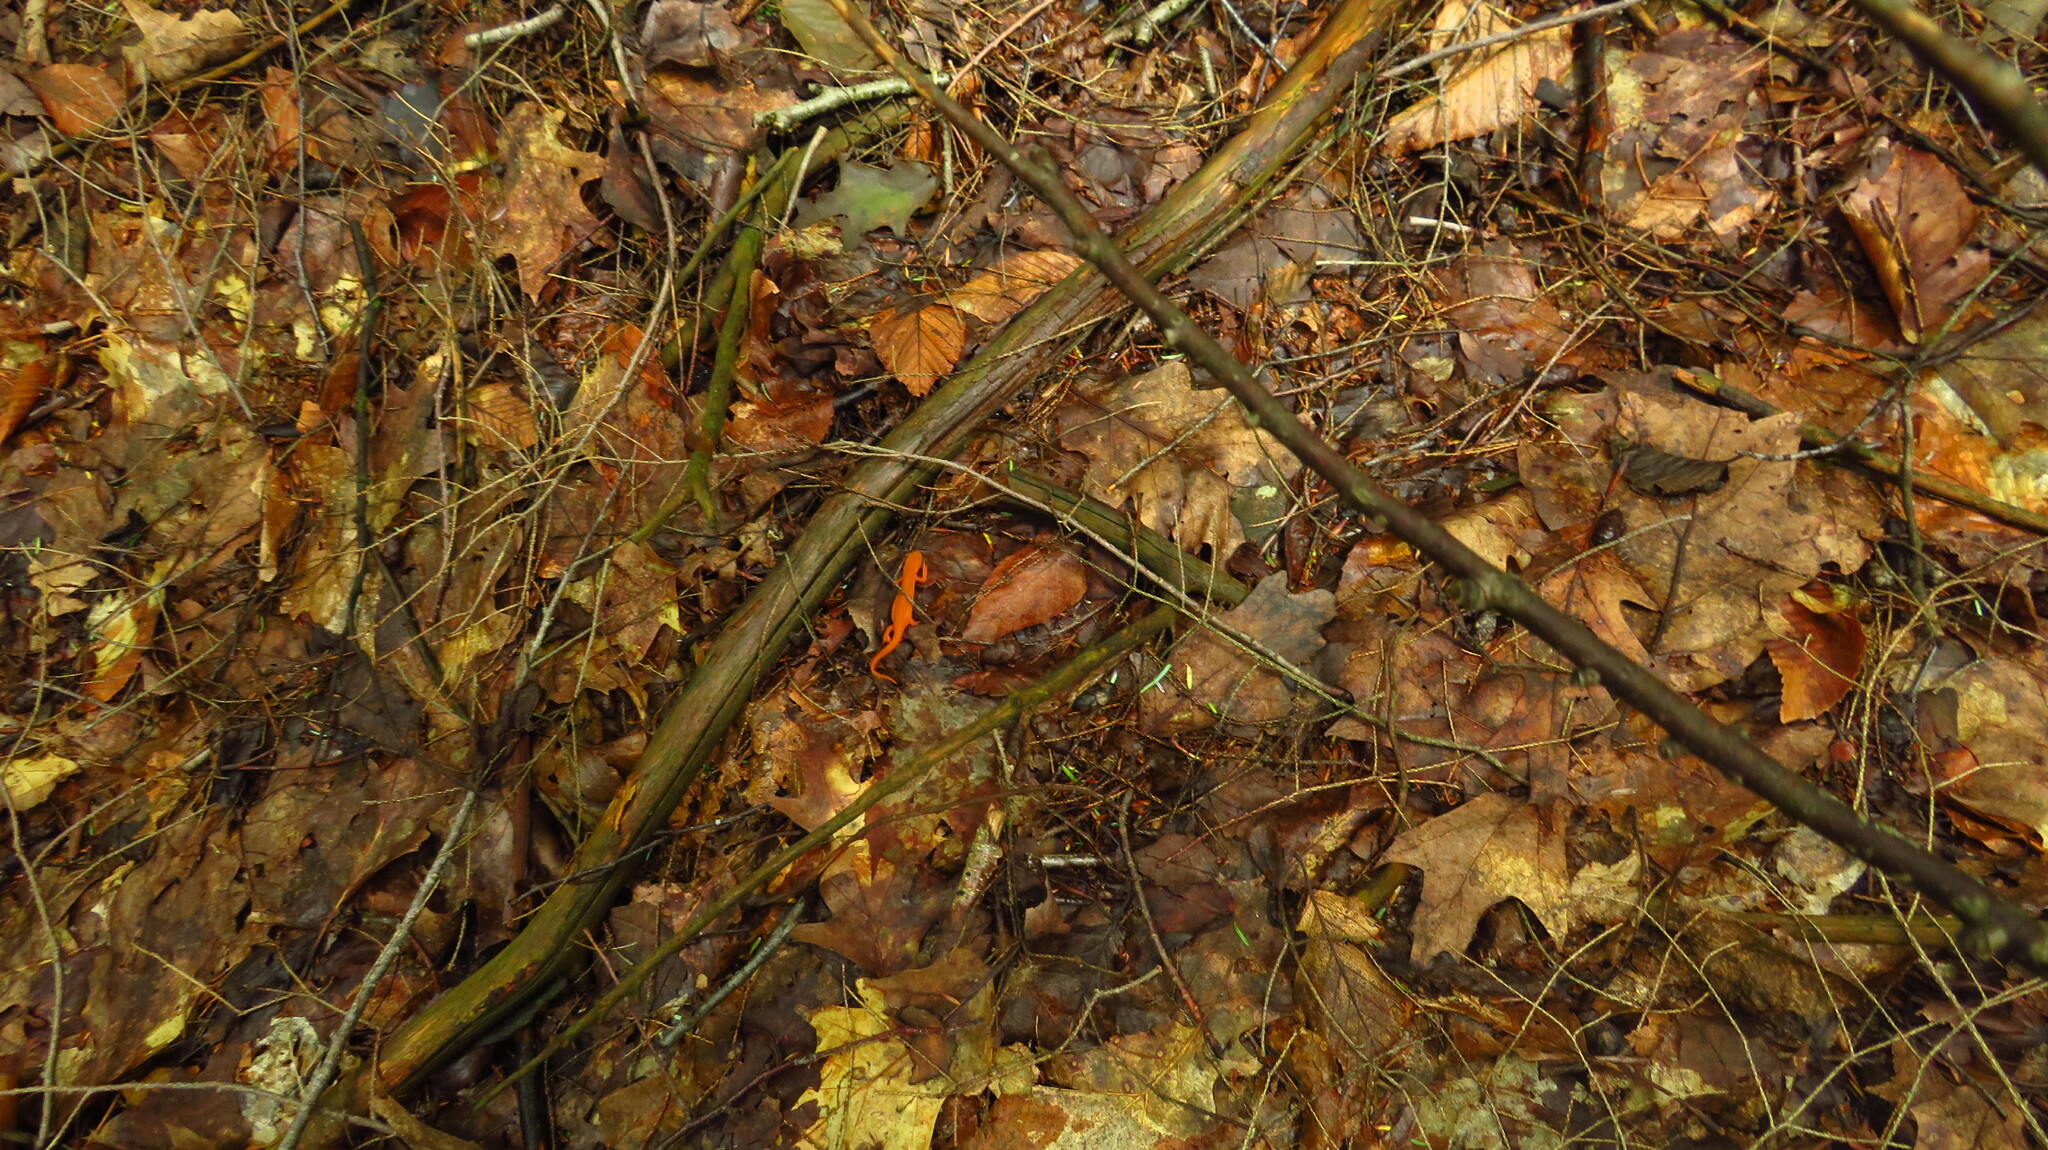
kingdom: Animalia
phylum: Chordata
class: Amphibia
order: Caudata
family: Salamandridae
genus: Notophthalmus
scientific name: Notophthalmus viridescens
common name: Eastern newt
